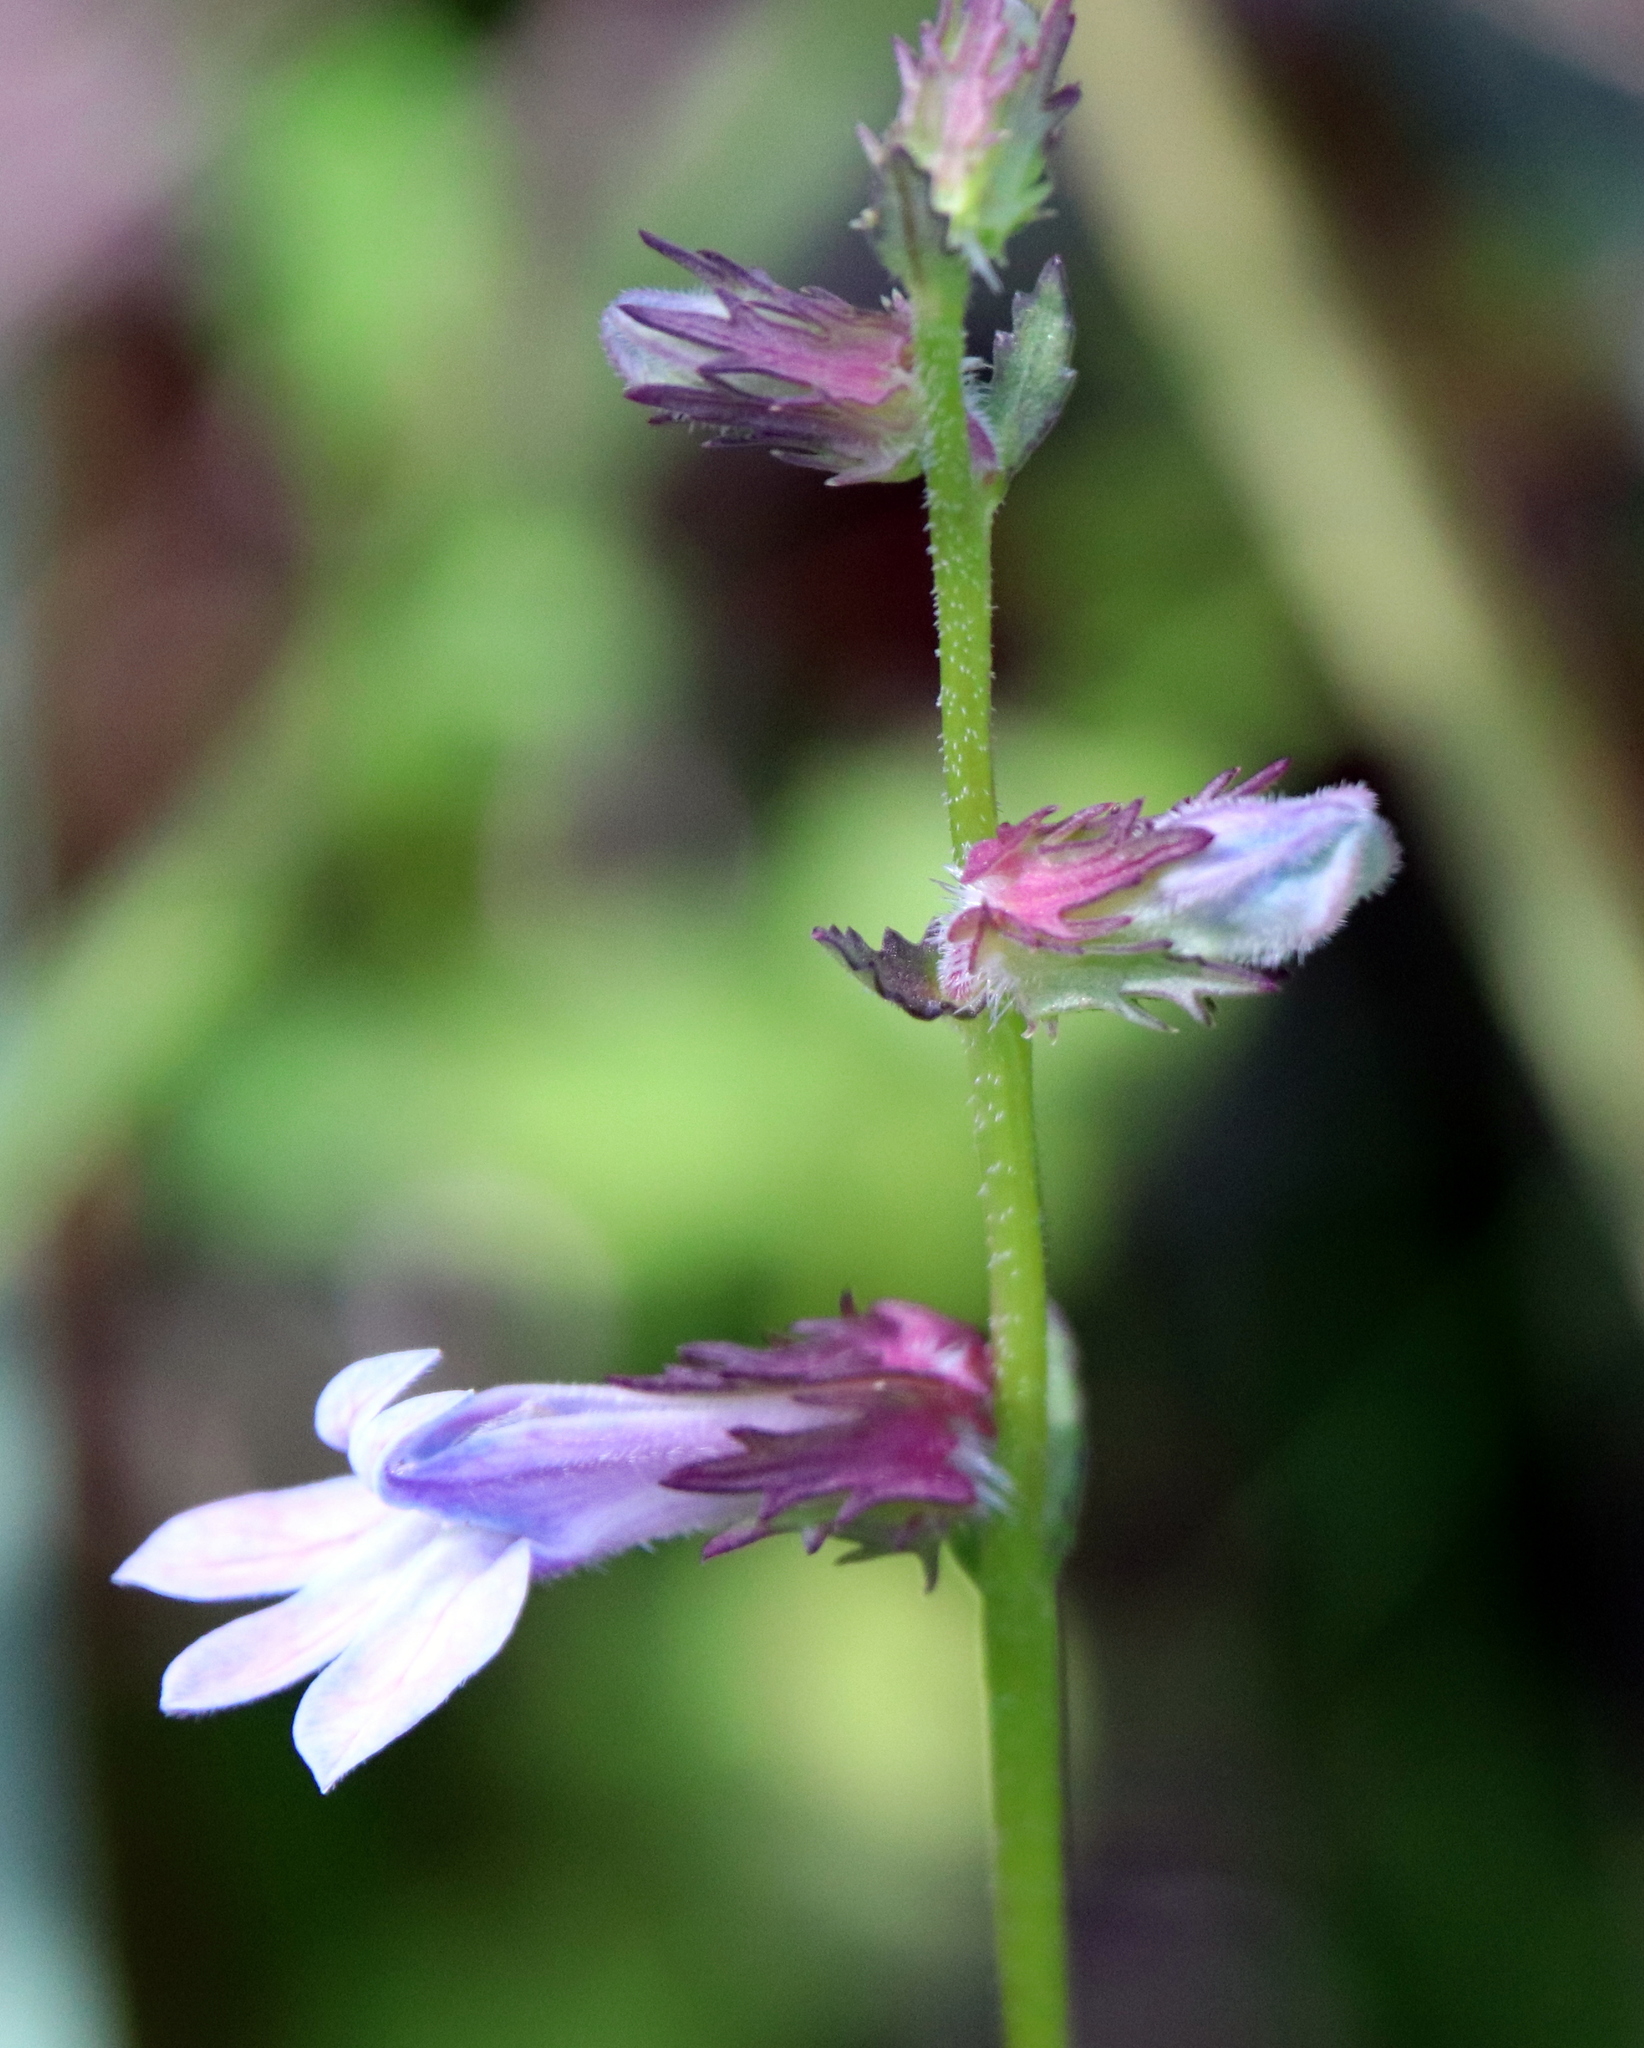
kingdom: Plantae
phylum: Tracheophyta
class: Magnoliopsida
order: Asterales
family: Campanulaceae
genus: Lobelia
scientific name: Lobelia brevifolia
